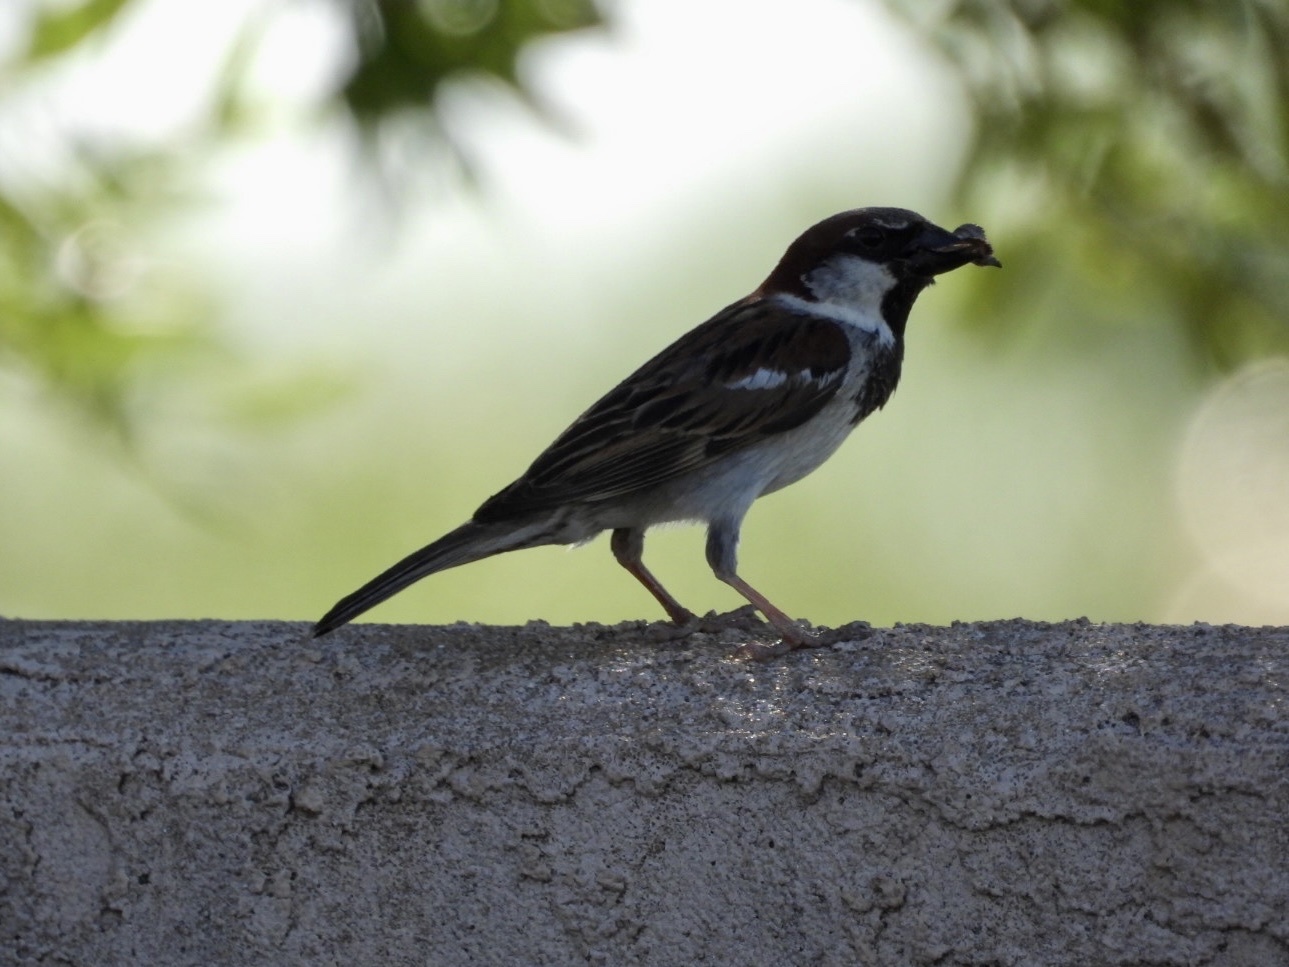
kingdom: Animalia
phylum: Chordata
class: Aves
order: Passeriformes
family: Passeridae
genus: Passer
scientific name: Passer domesticus
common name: House sparrow
